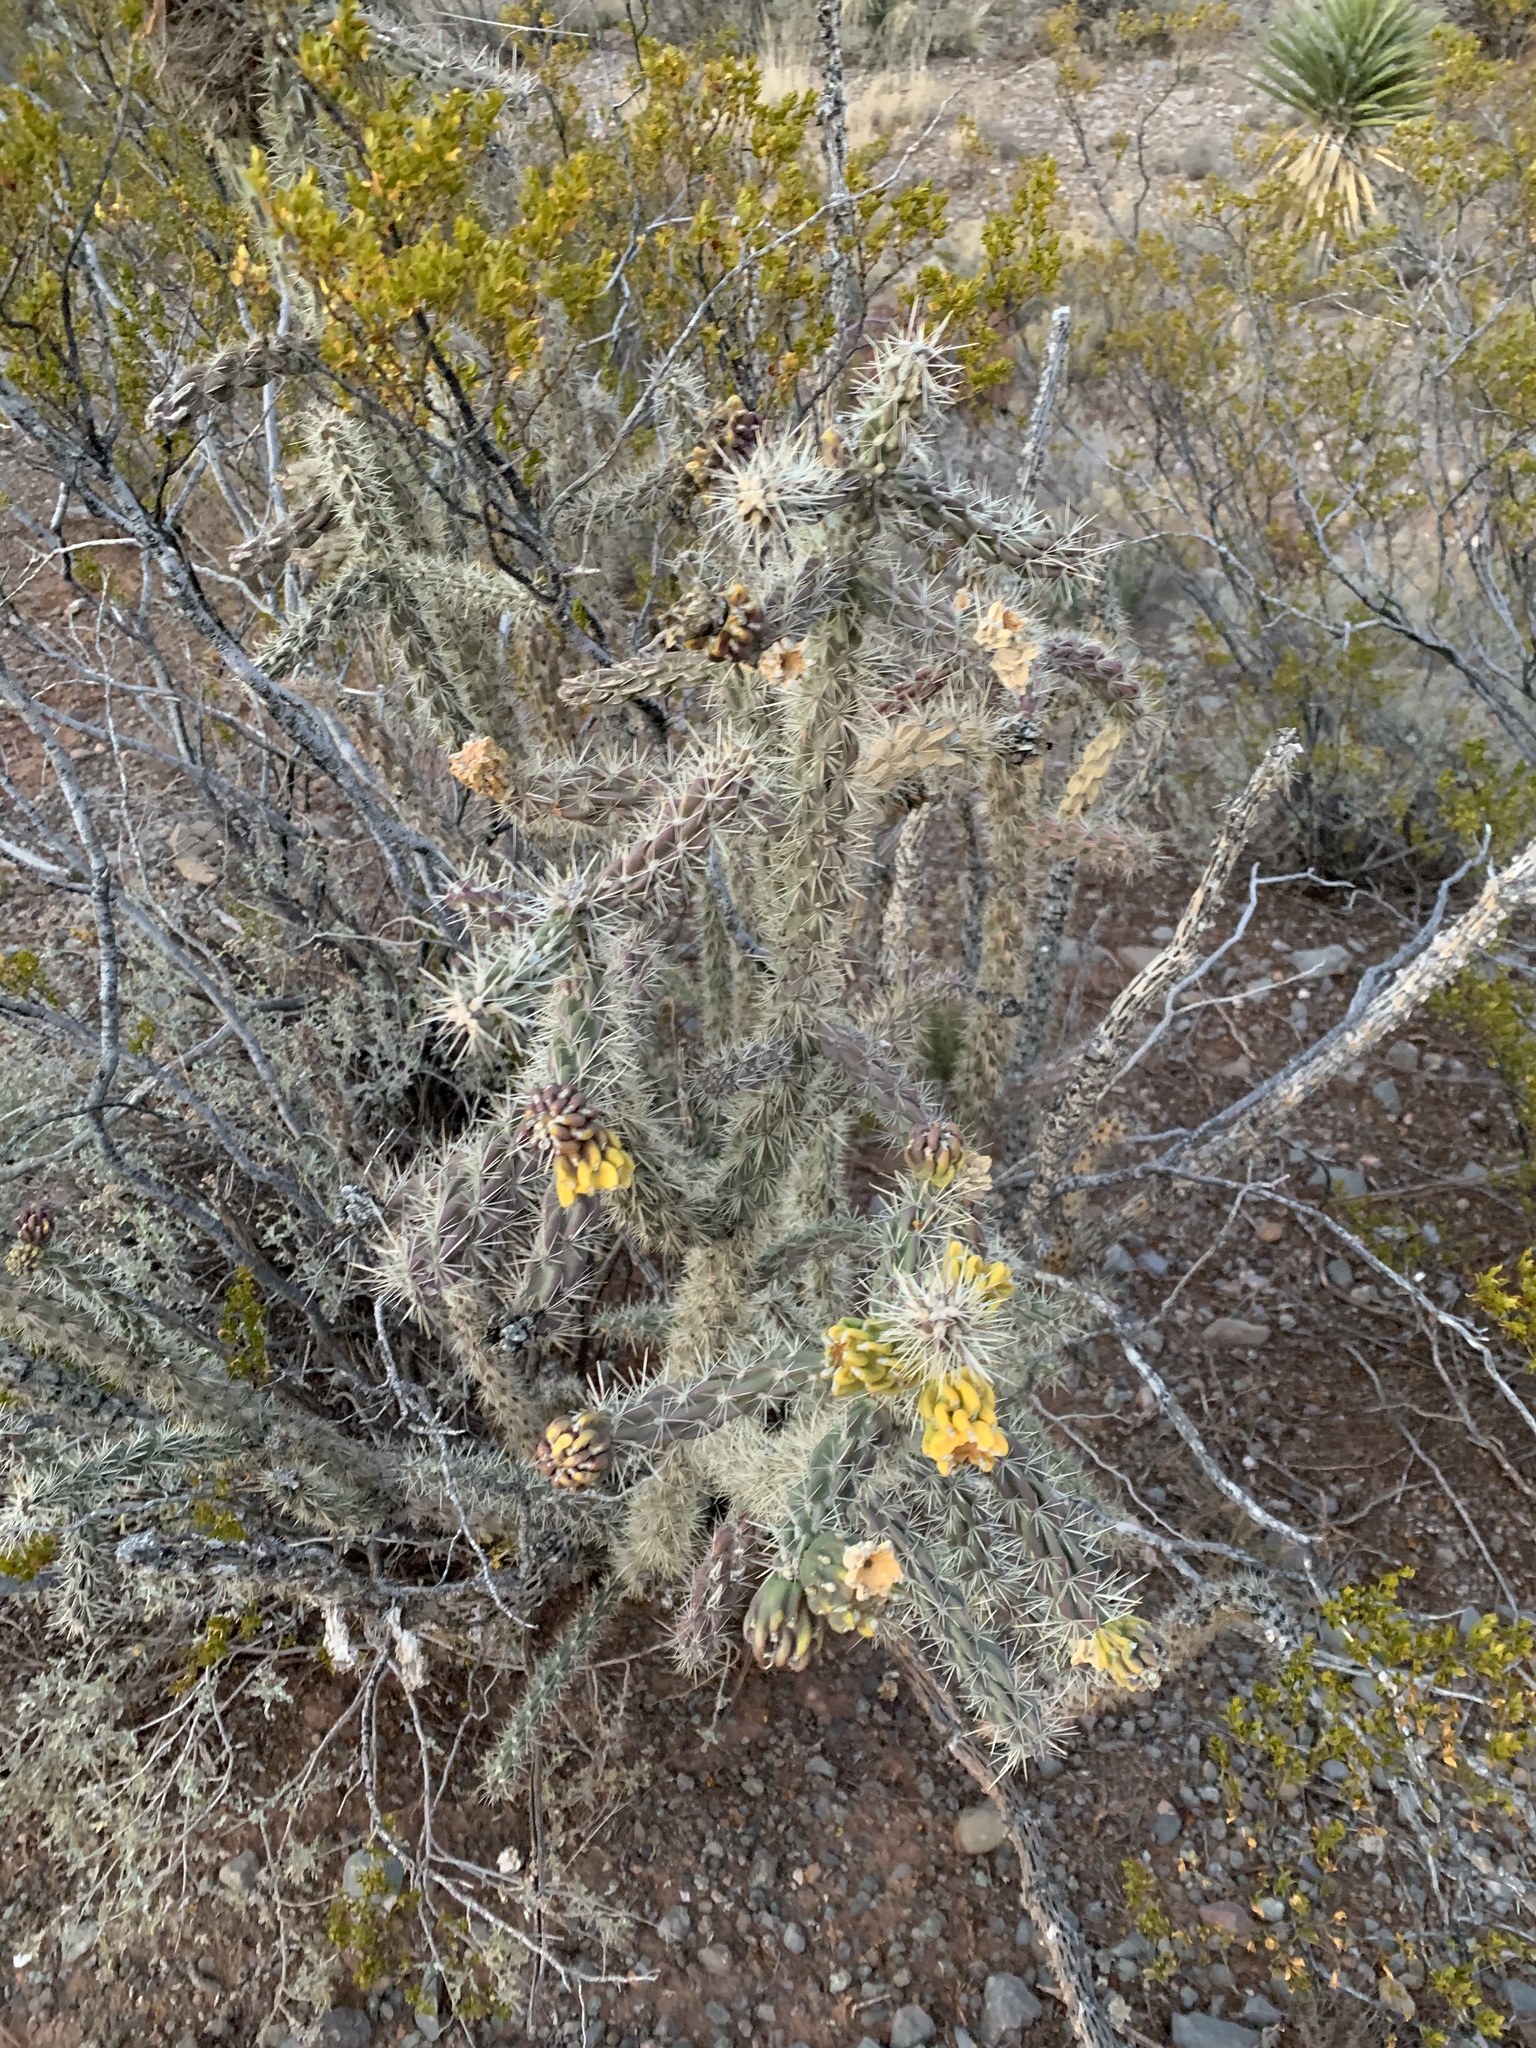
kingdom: Plantae
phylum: Tracheophyta
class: Magnoliopsida
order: Caryophyllales
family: Cactaceae
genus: Cylindropuntia
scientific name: Cylindropuntia imbricata
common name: Candelabrum cactus
